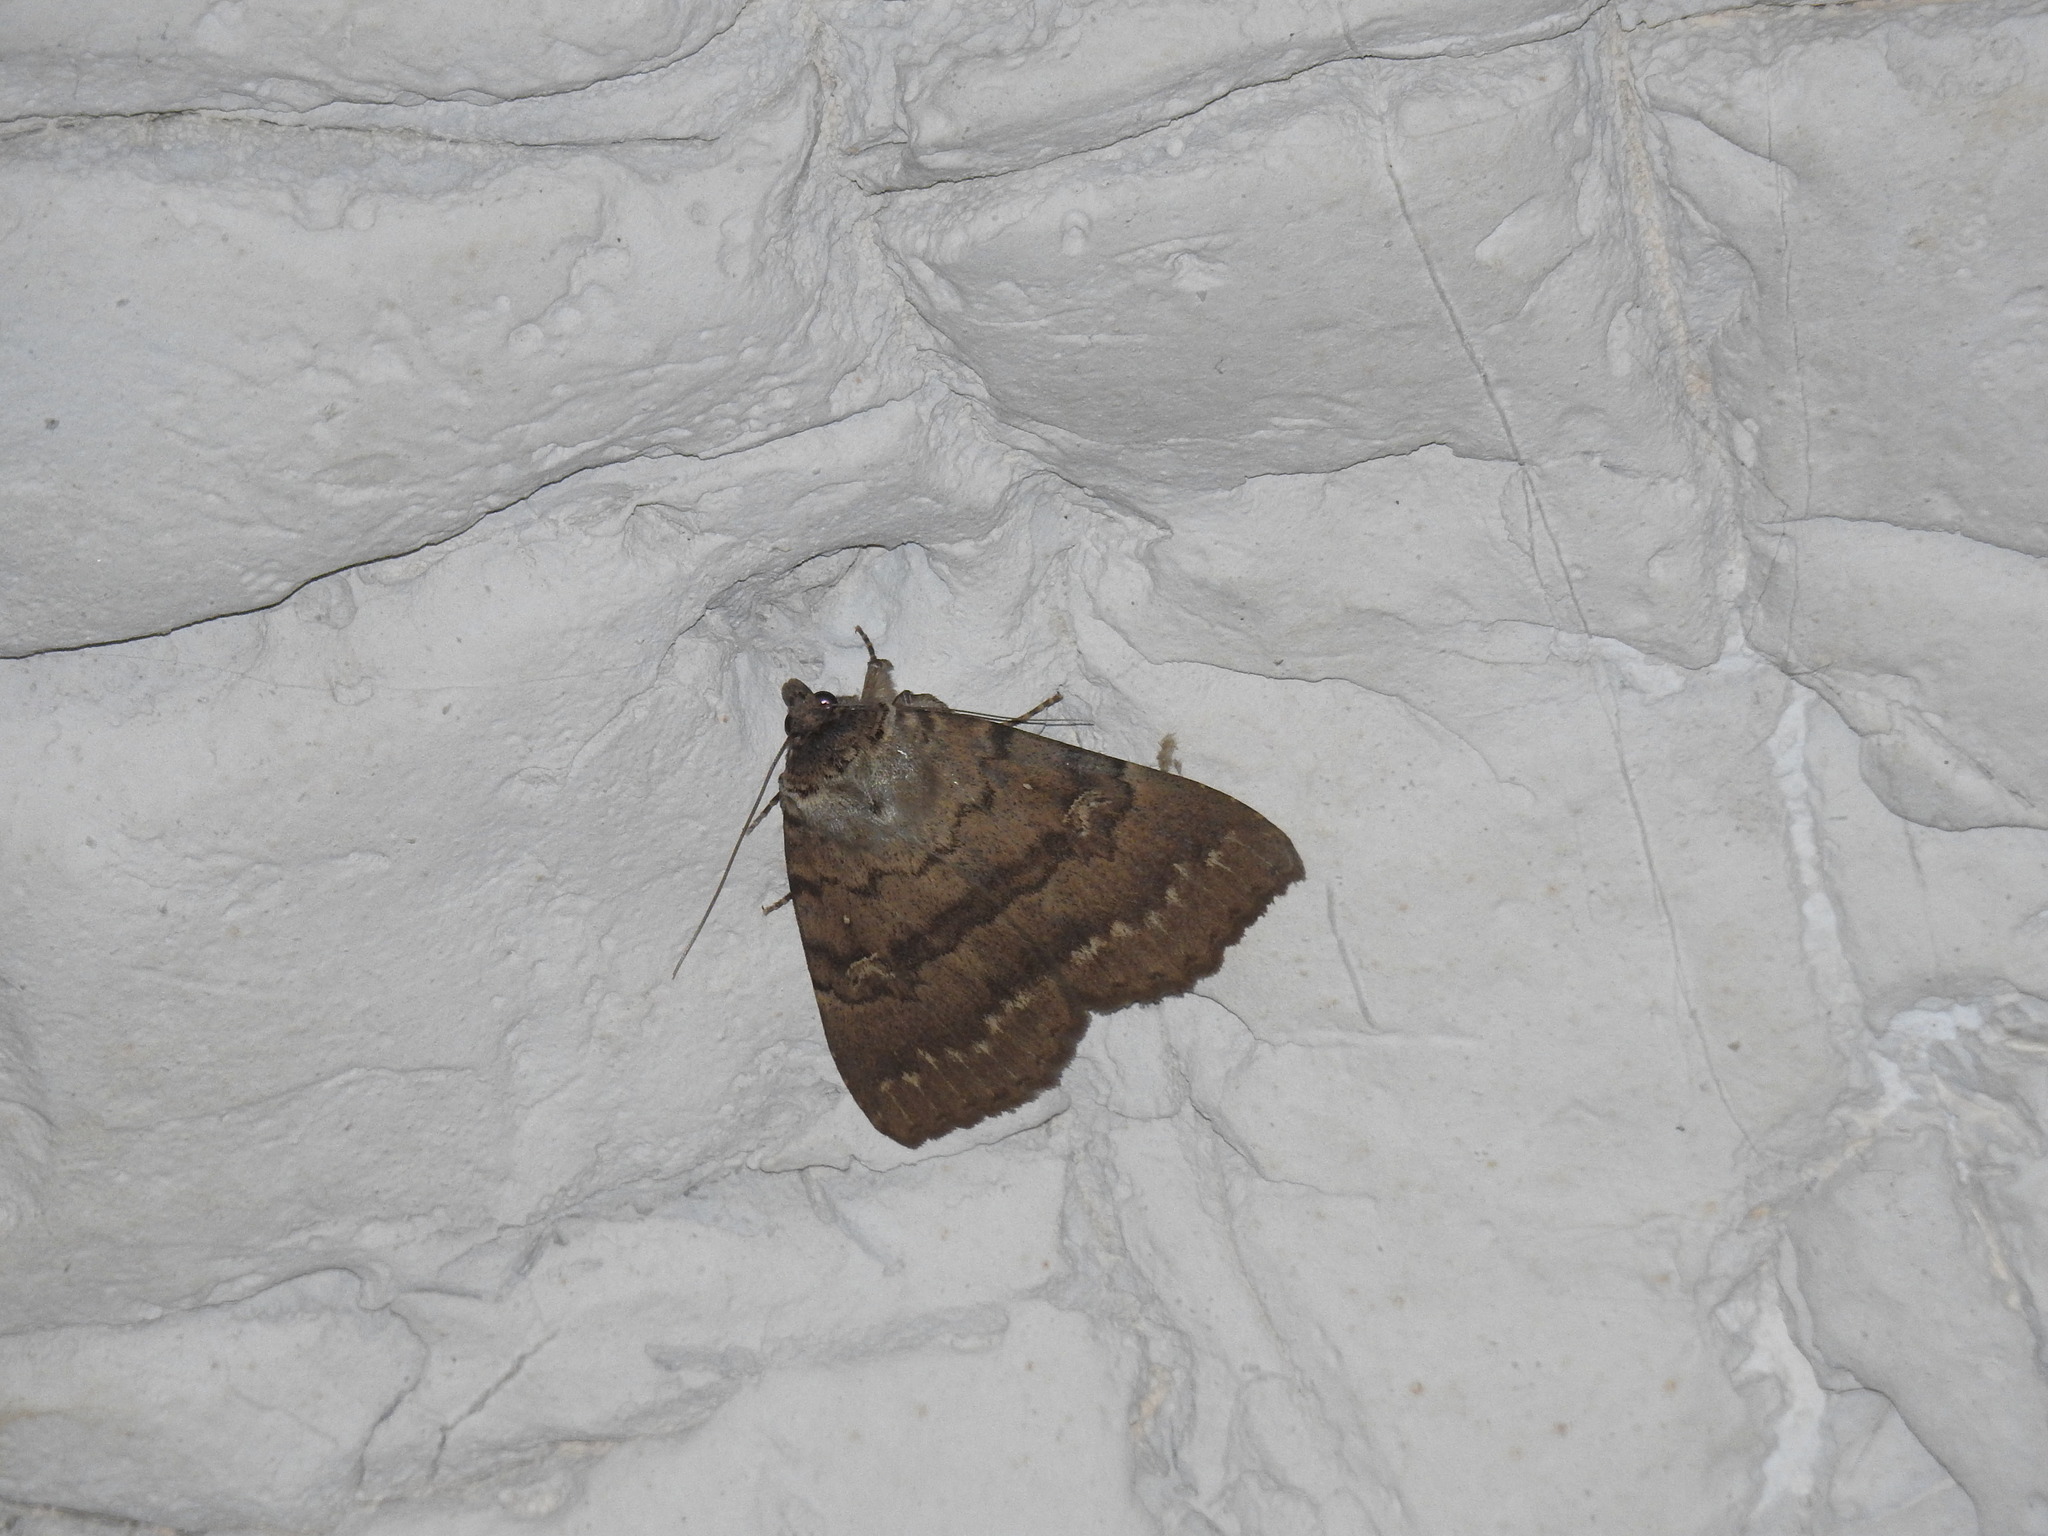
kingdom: Animalia
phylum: Arthropoda
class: Insecta
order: Lepidoptera
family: Erebidae
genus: Apopestes
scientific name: Apopestes spectrum
